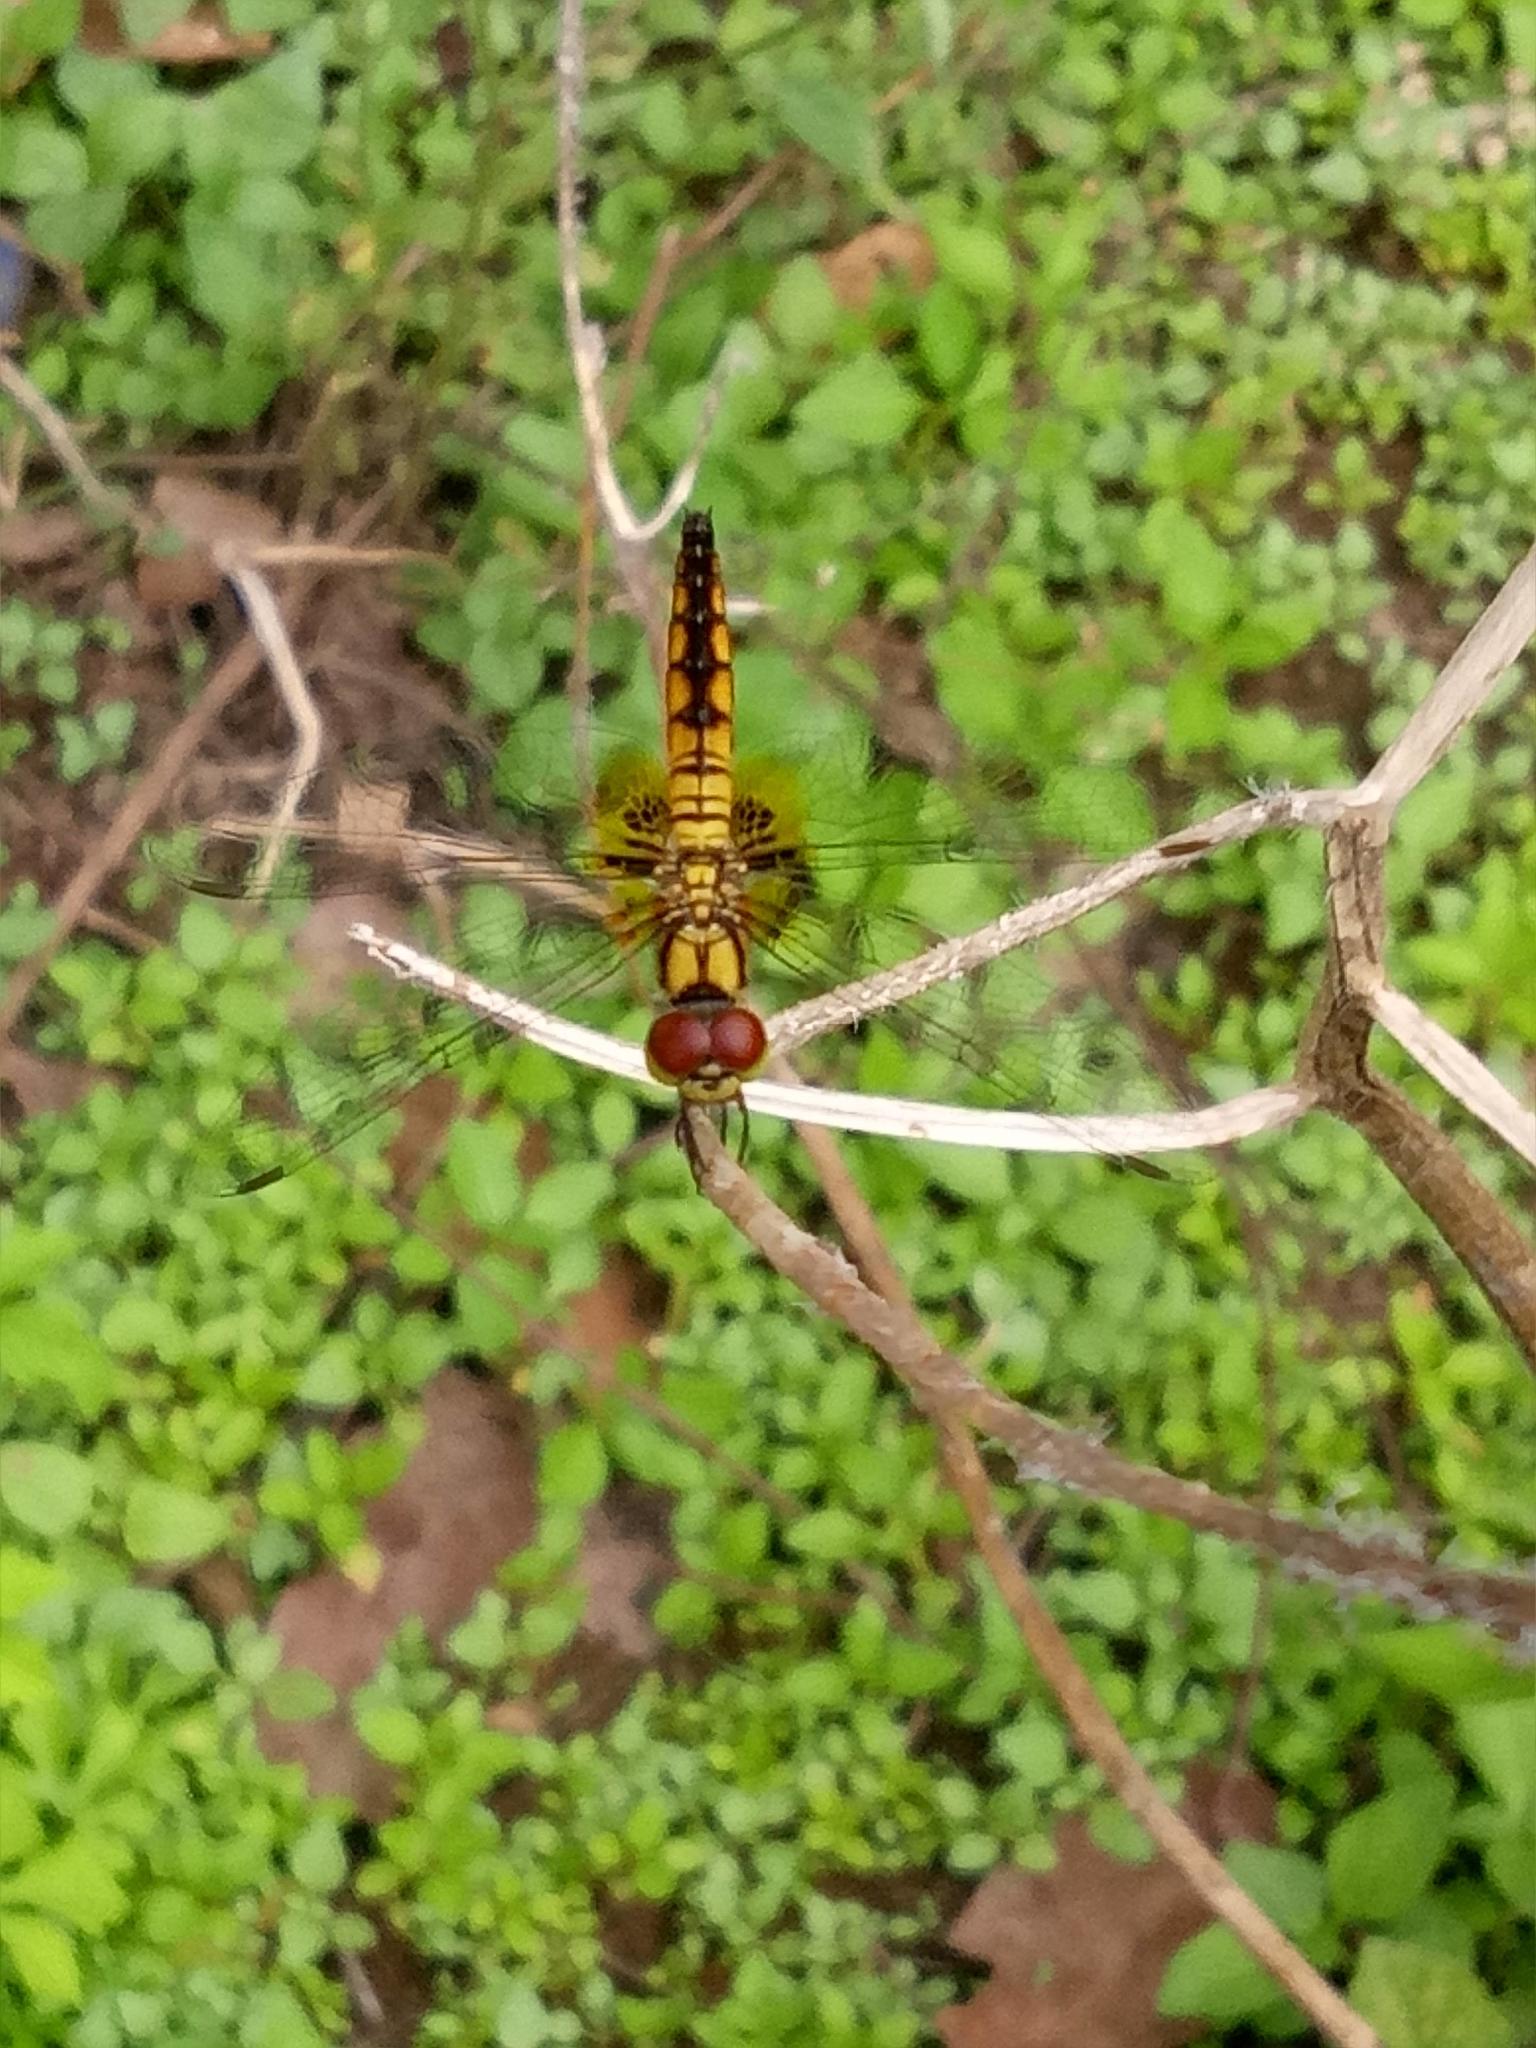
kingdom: Animalia
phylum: Arthropoda
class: Insecta
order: Odonata
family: Libellulidae
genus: Aethriamanta
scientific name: Aethriamanta brevipennis
